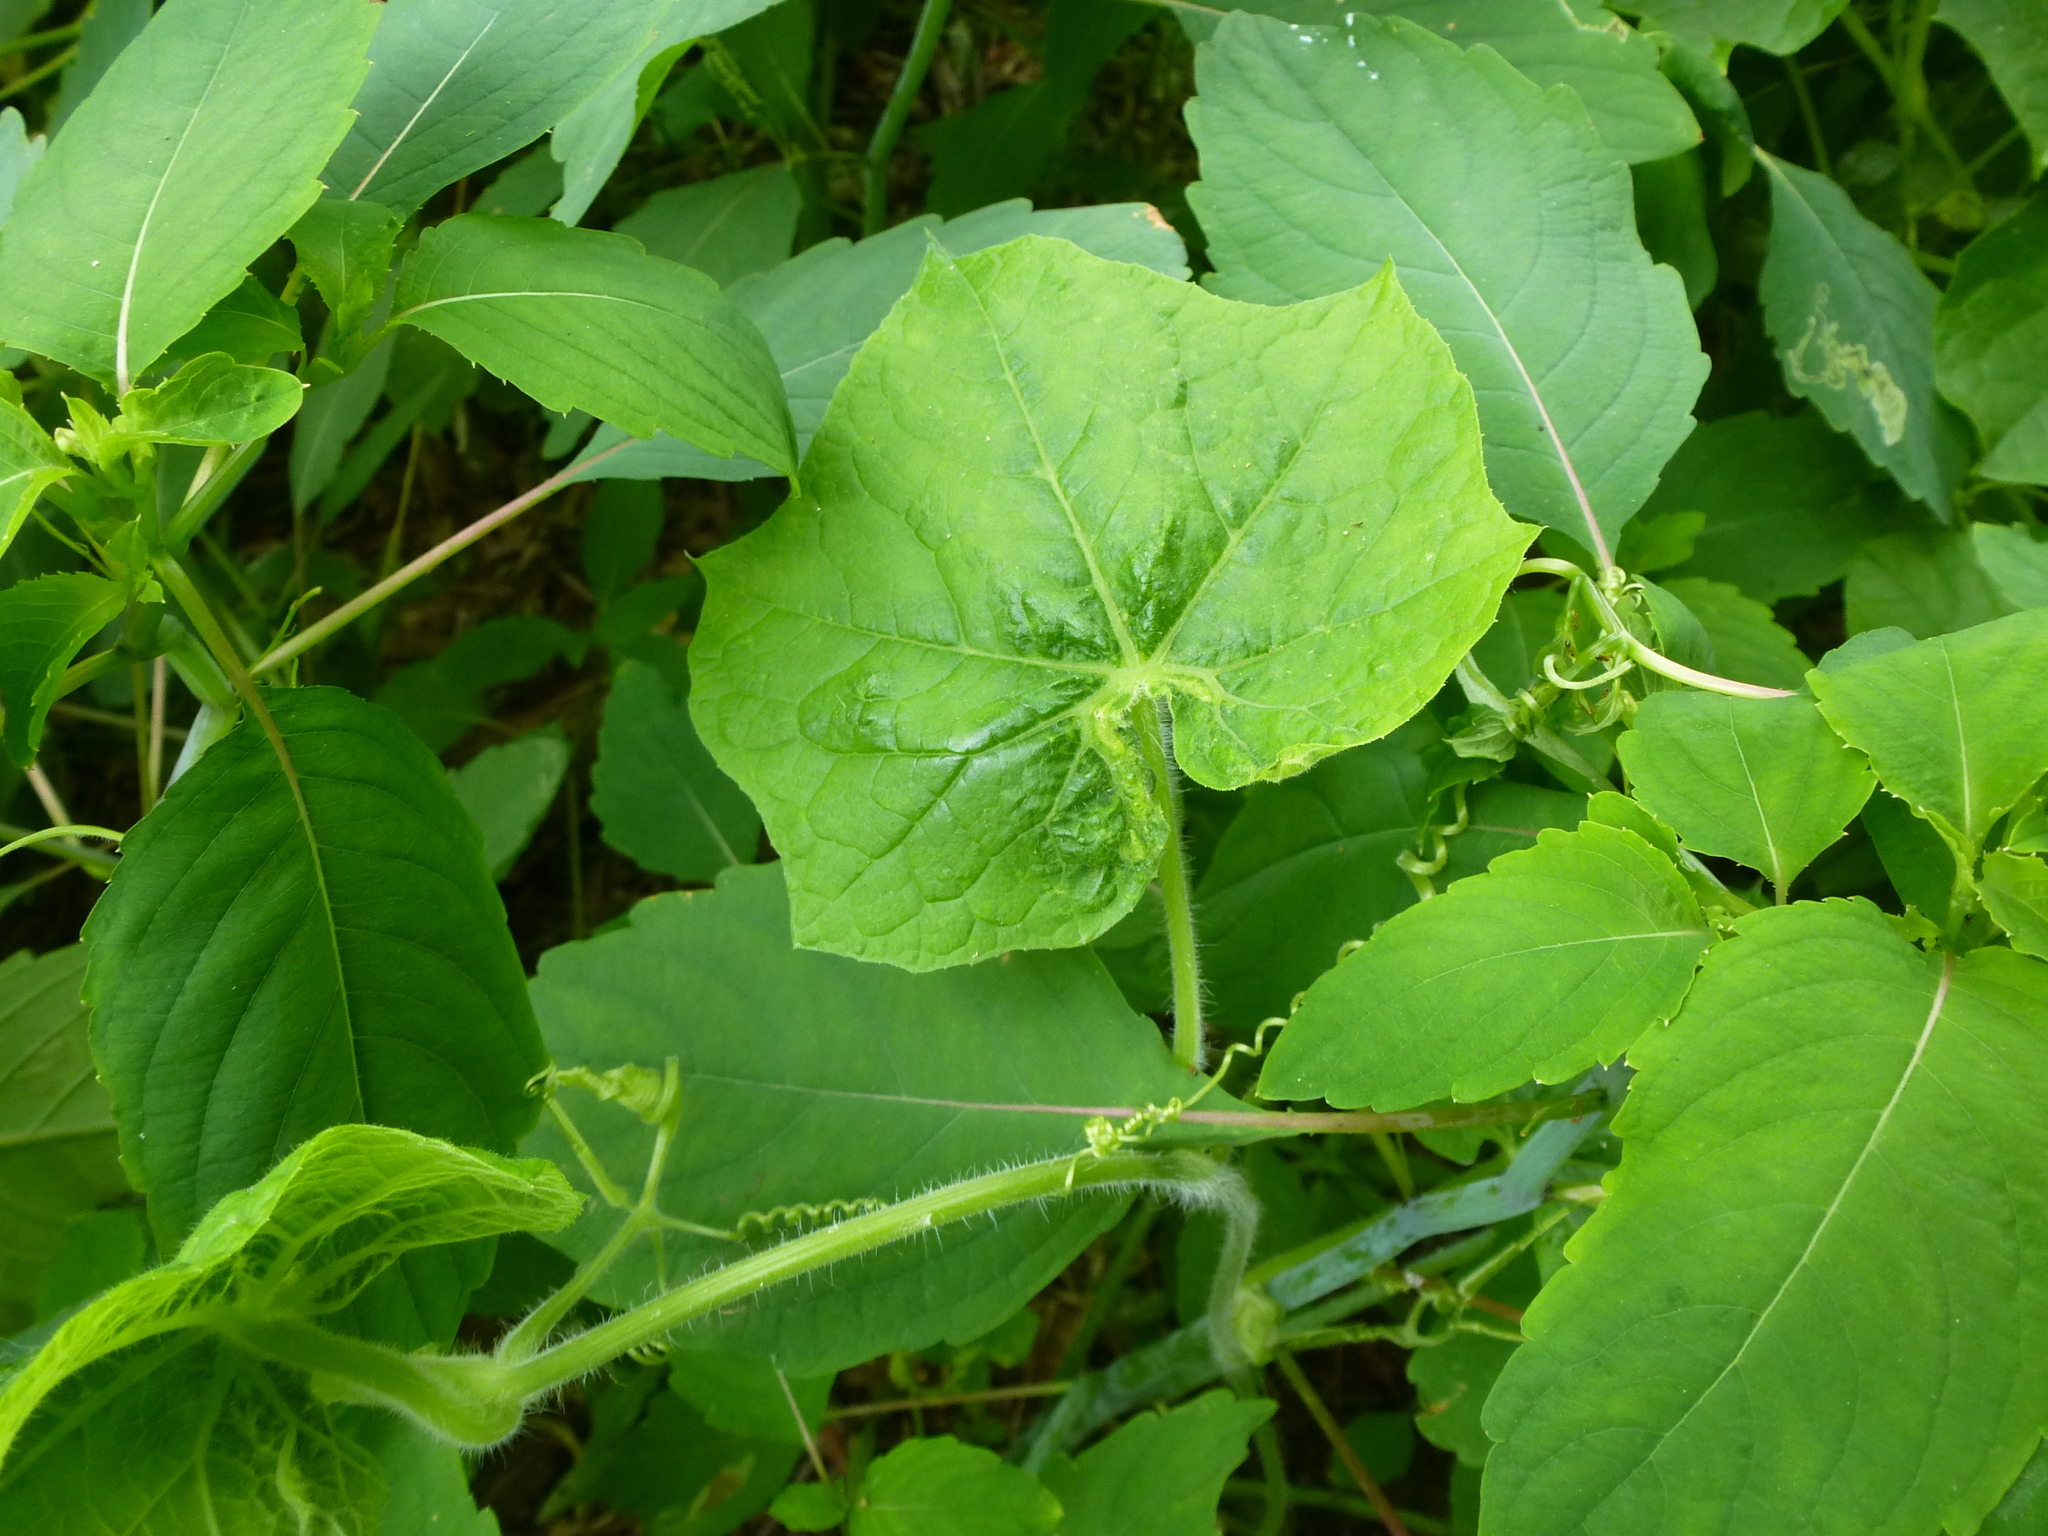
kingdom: Plantae
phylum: Tracheophyta
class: Magnoliopsida
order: Cucurbitales
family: Cucurbitaceae
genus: Sicyos
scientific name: Sicyos angulatus
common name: Angled burr cucumber
